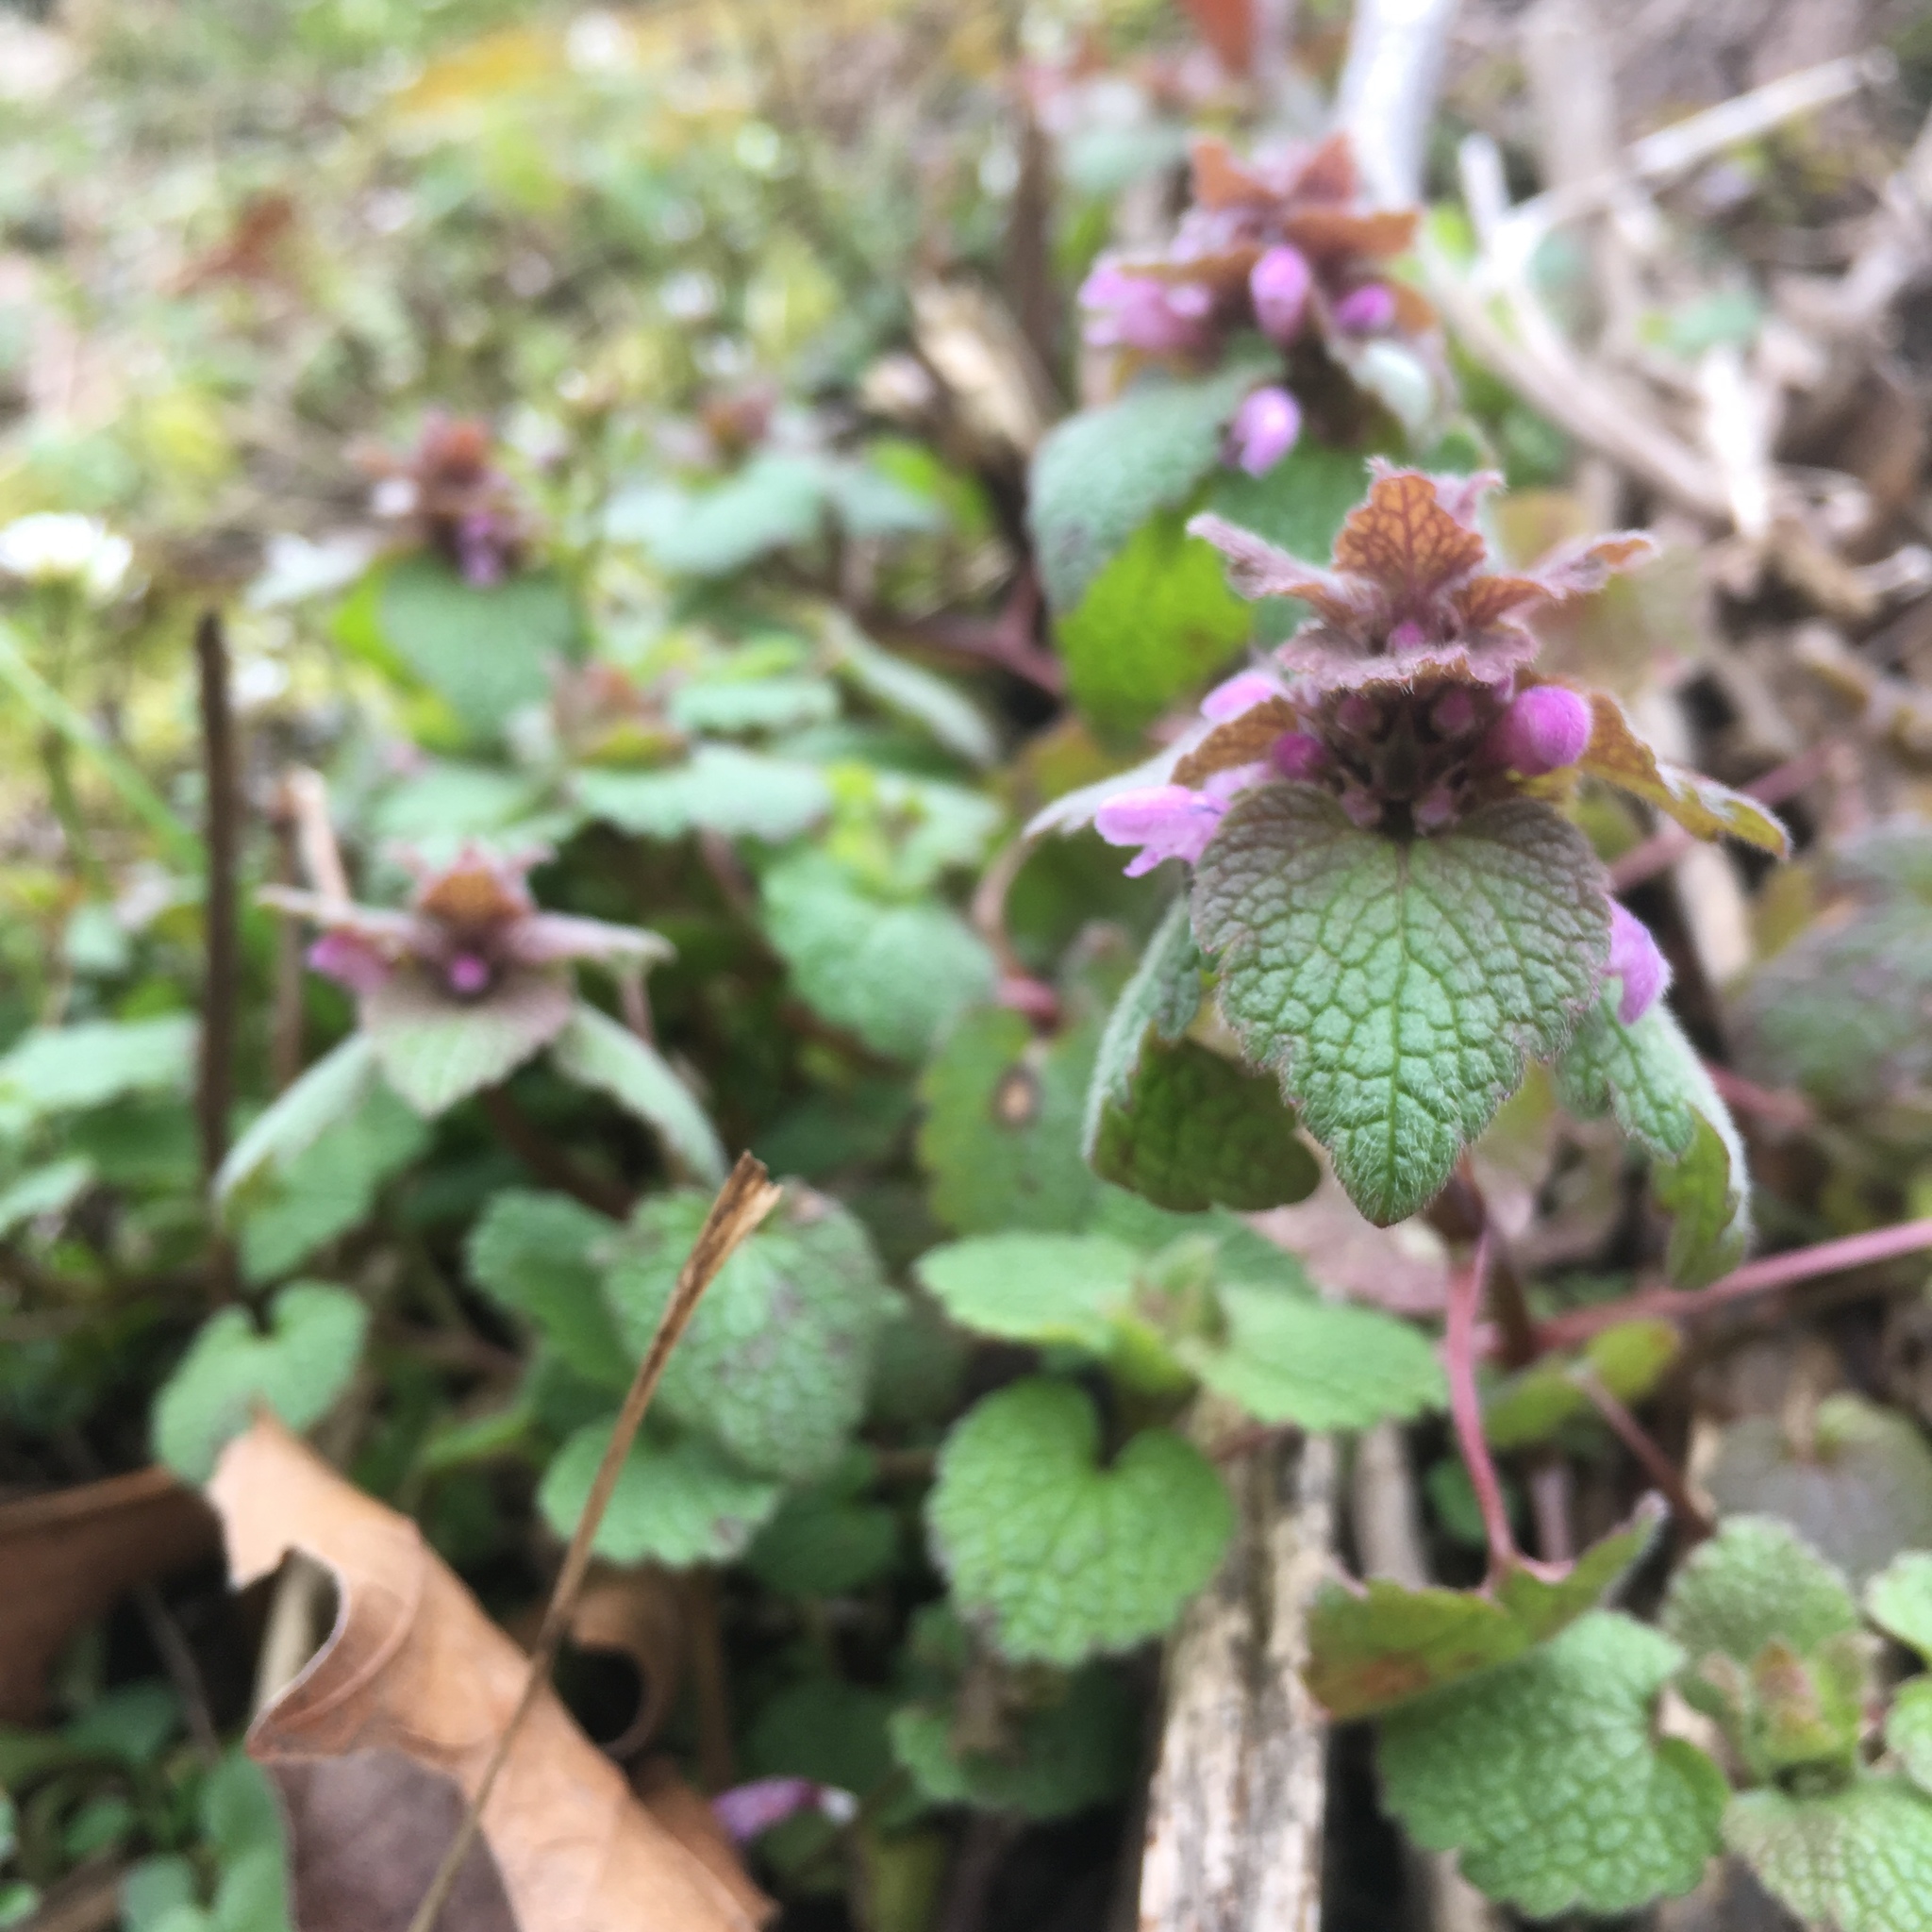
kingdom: Plantae
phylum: Tracheophyta
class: Magnoliopsida
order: Lamiales
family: Lamiaceae
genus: Lamium
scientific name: Lamium purpureum
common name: Red dead-nettle
